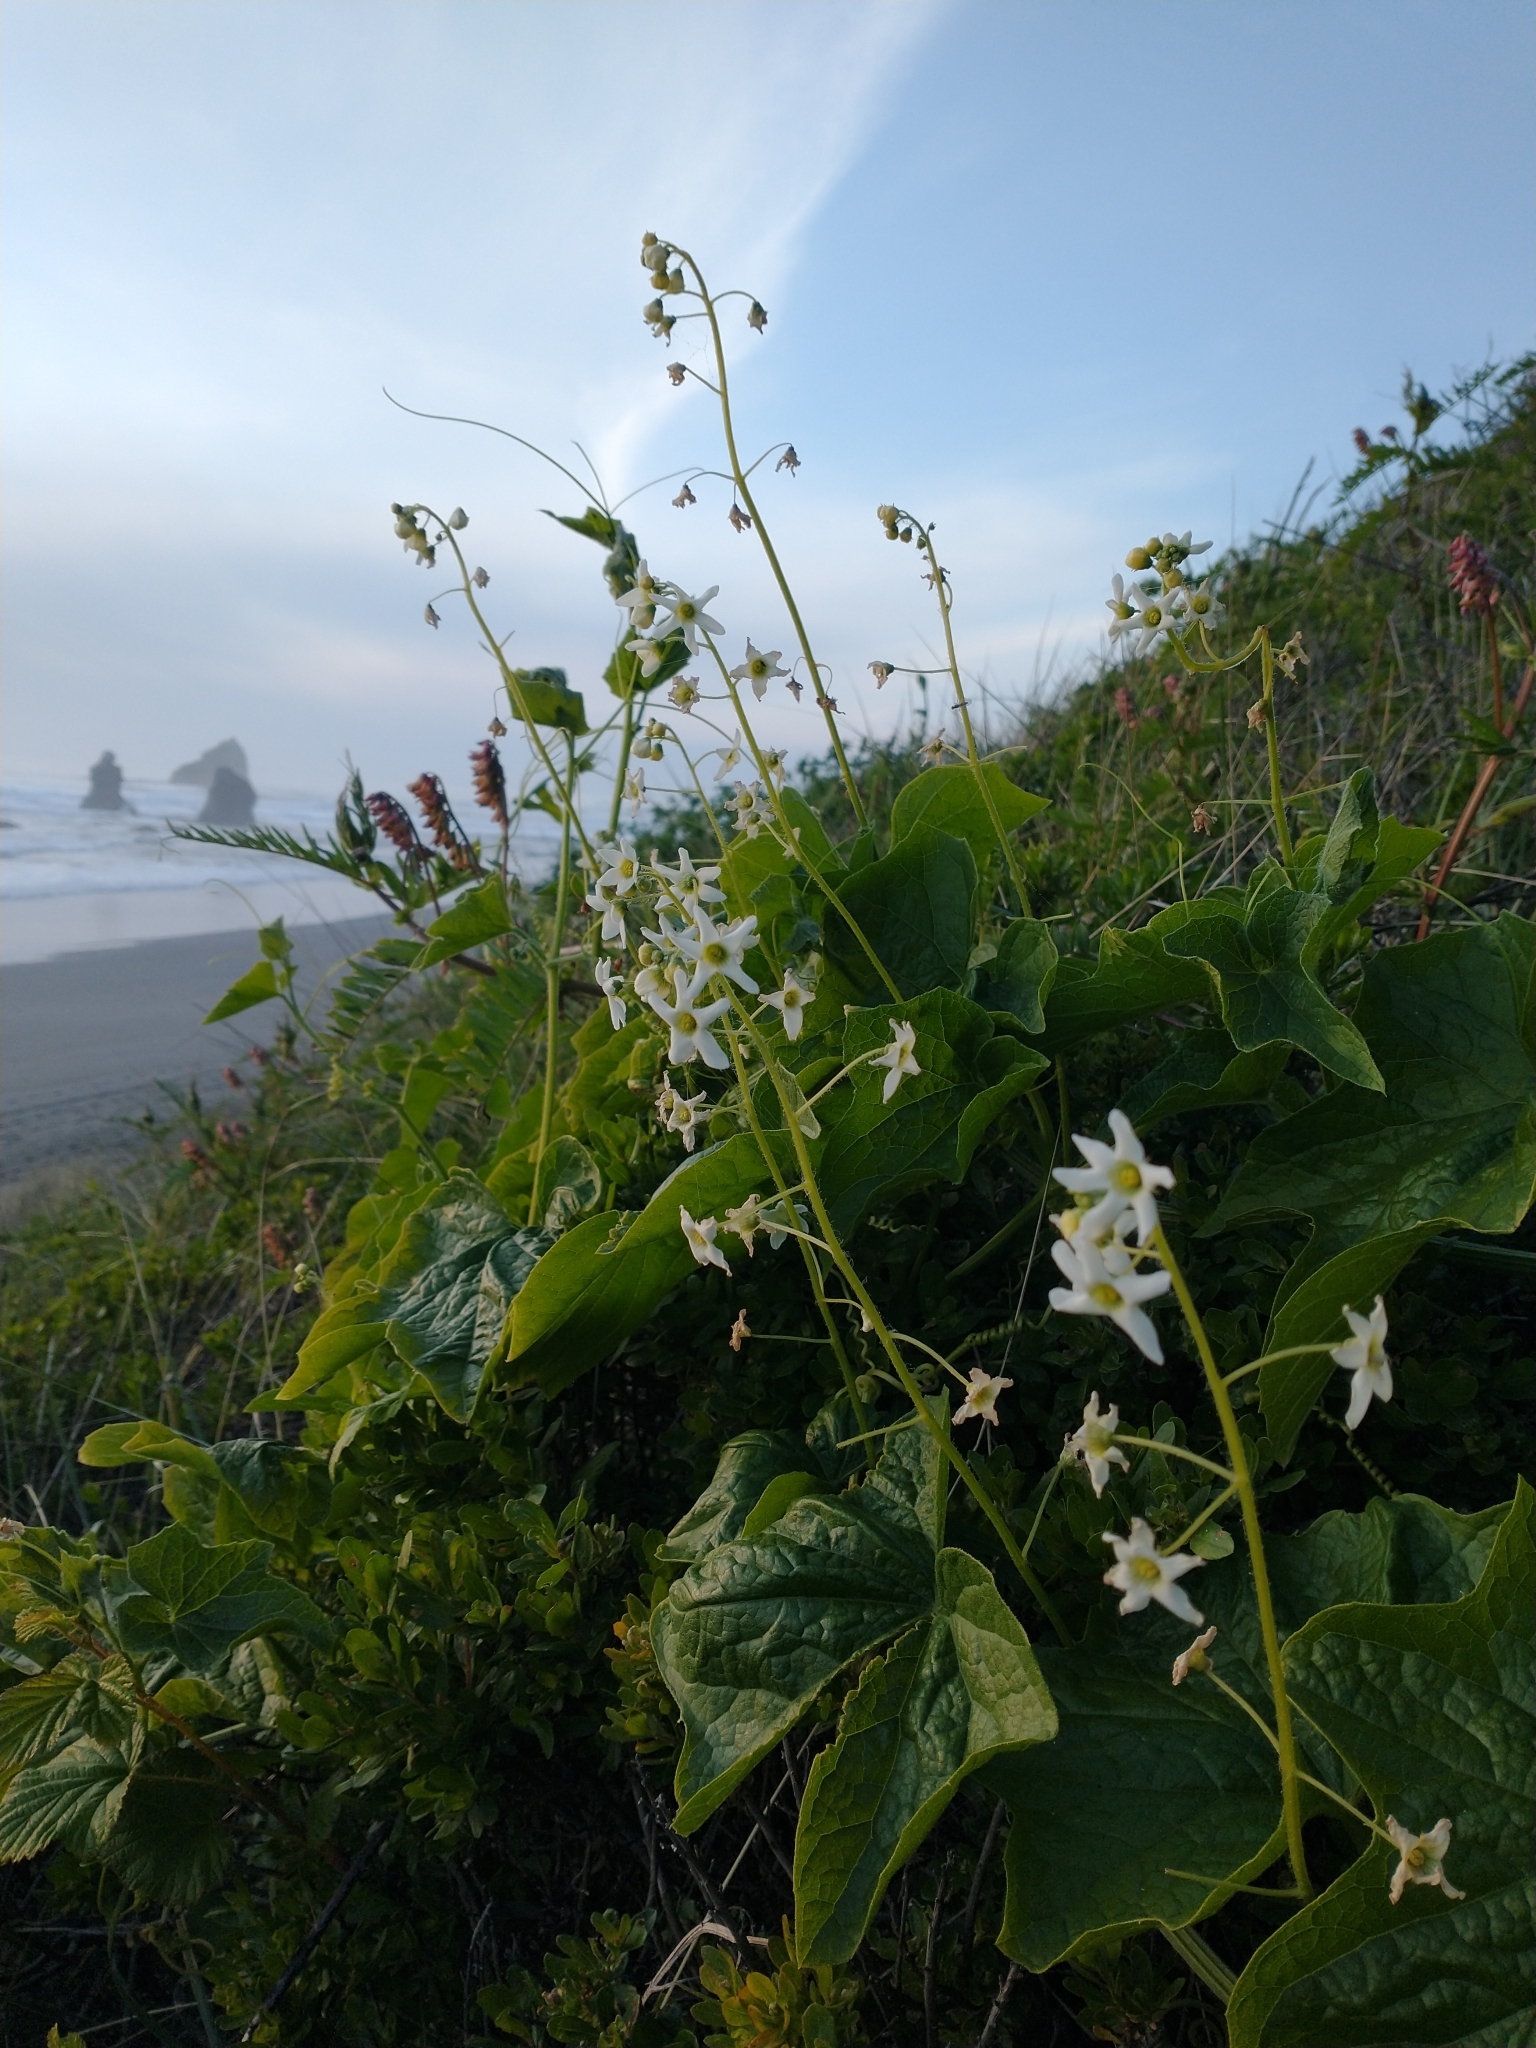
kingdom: Plantae
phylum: Tracheophyta
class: Magnoliopsida
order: Cucurbitales
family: Cucurbitaceae
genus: Marah
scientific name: Marah oregana
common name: Coastal manroot
